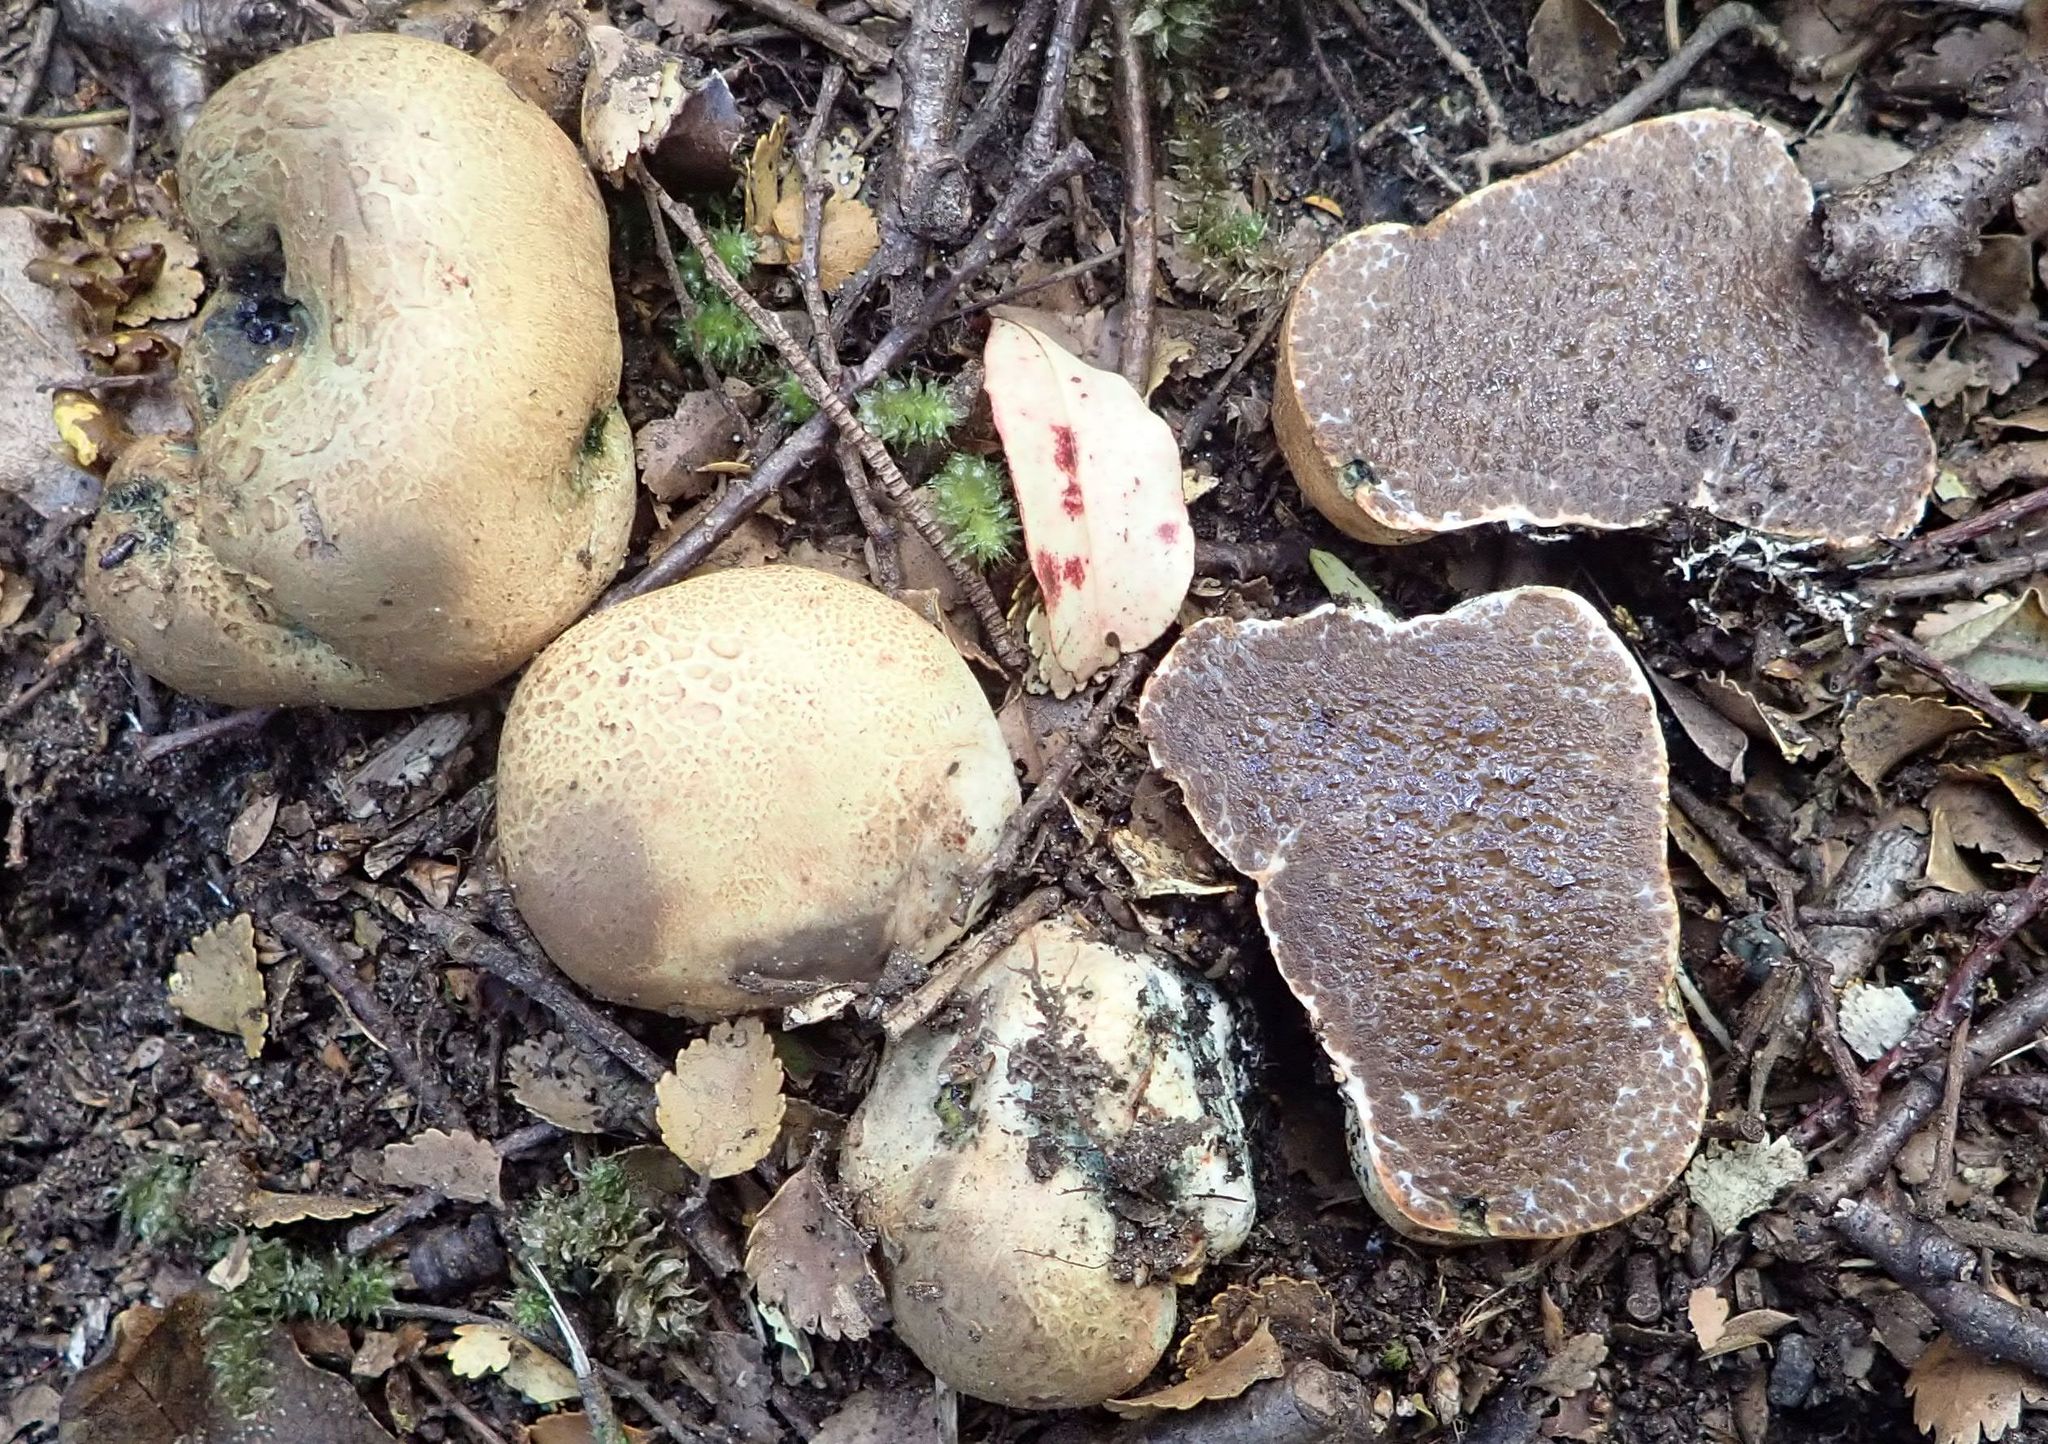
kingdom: Fungi
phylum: Basidiomycota
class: Agaricomycetes
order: Boletales
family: Boletaceae
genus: Leccinum
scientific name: Leccinum pachyderme
